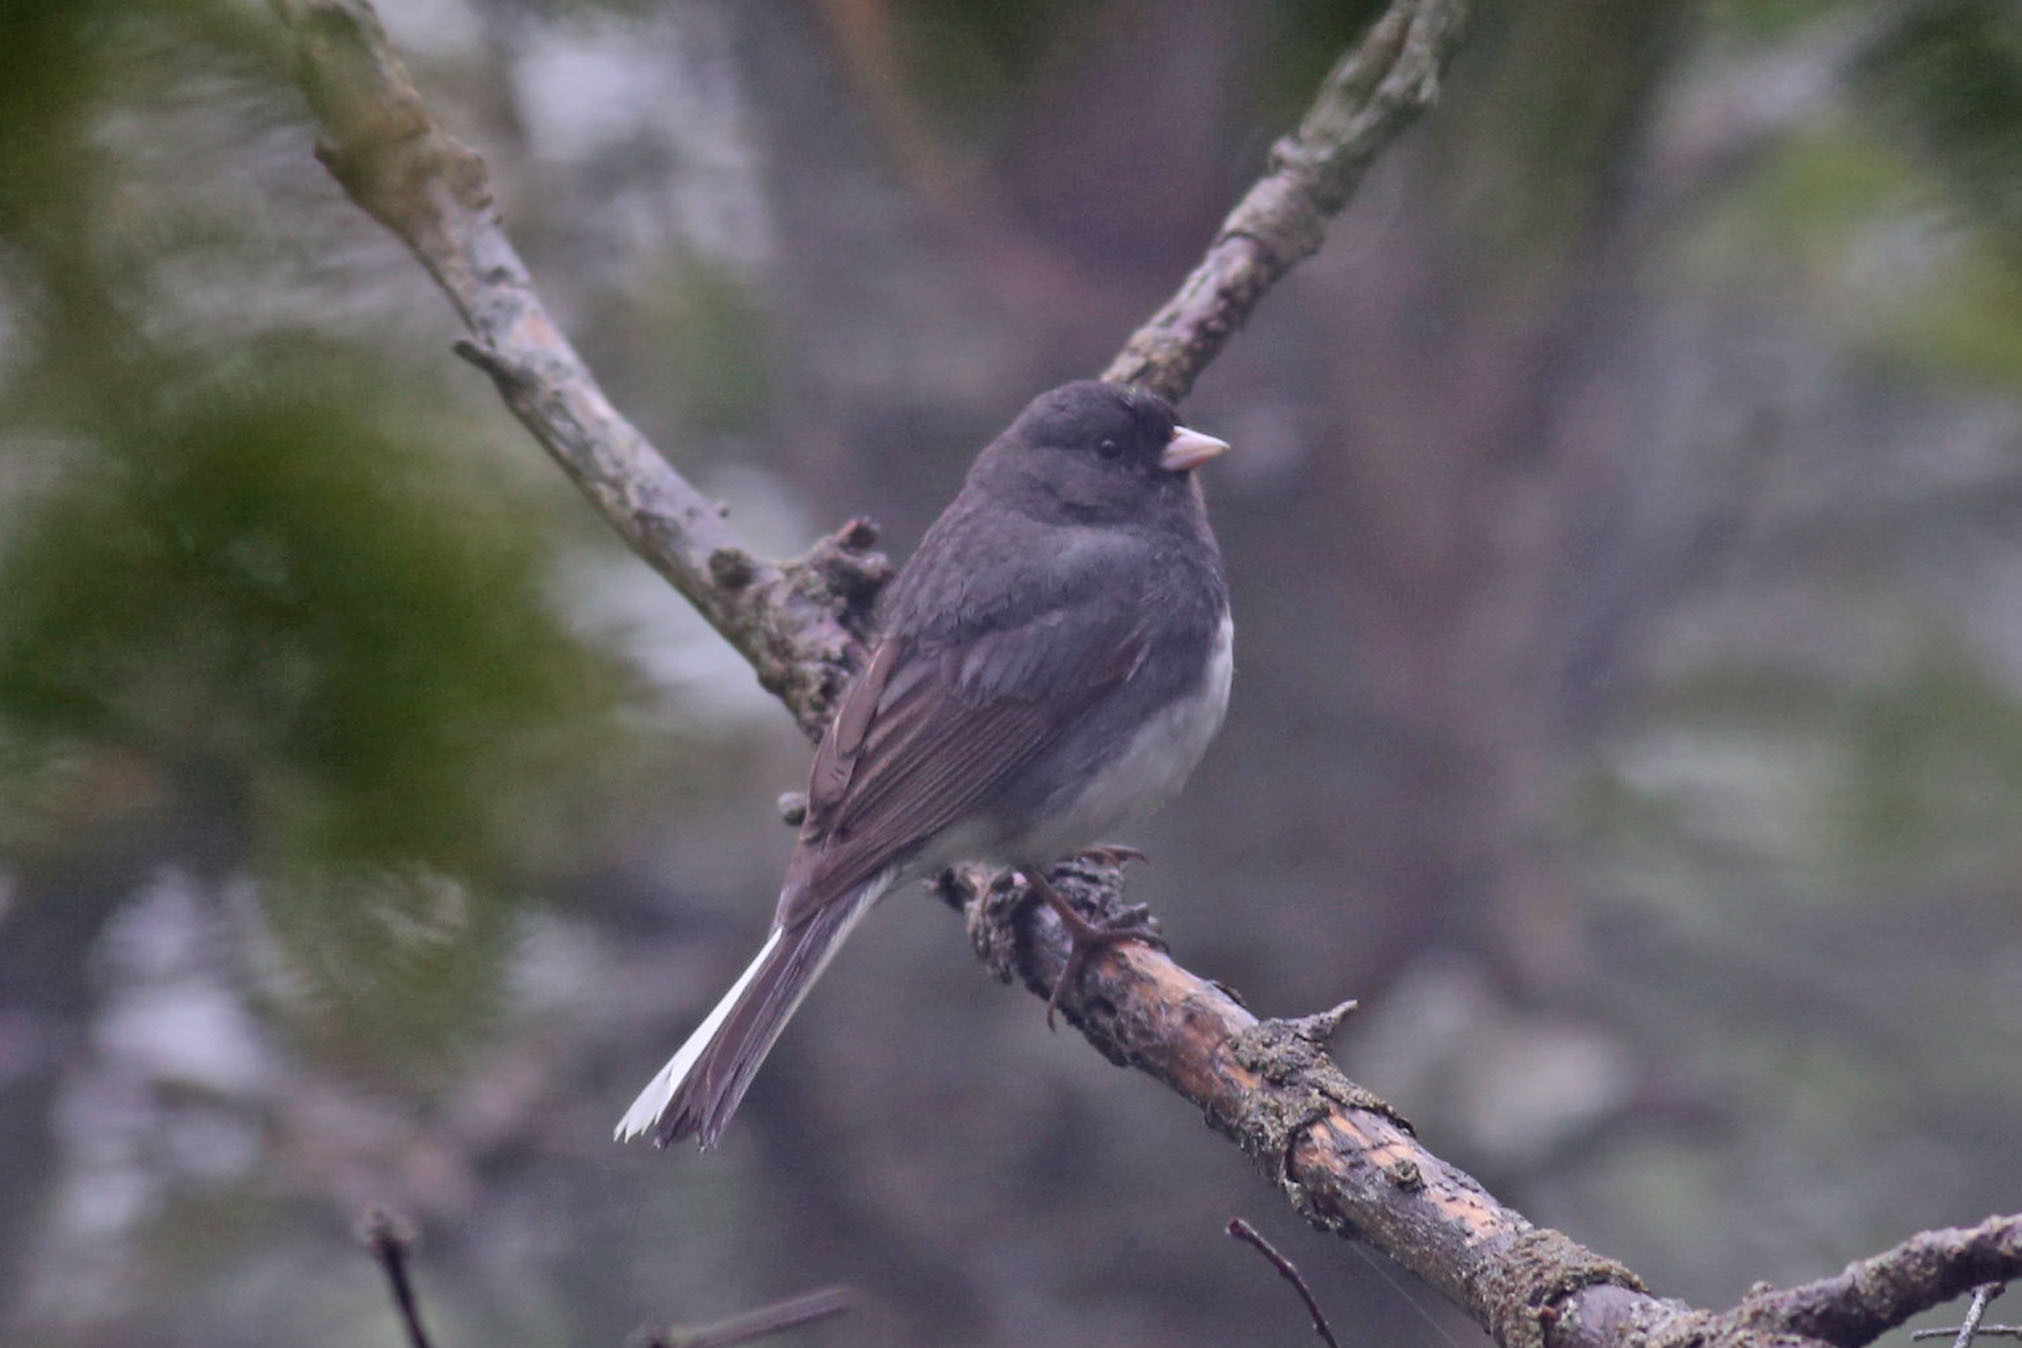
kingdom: Animalia
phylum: Chordata
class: Aves
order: Passeriformes
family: Passerellidae
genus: Junco
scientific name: Junco hyemalis
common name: Dark-eyed junco
